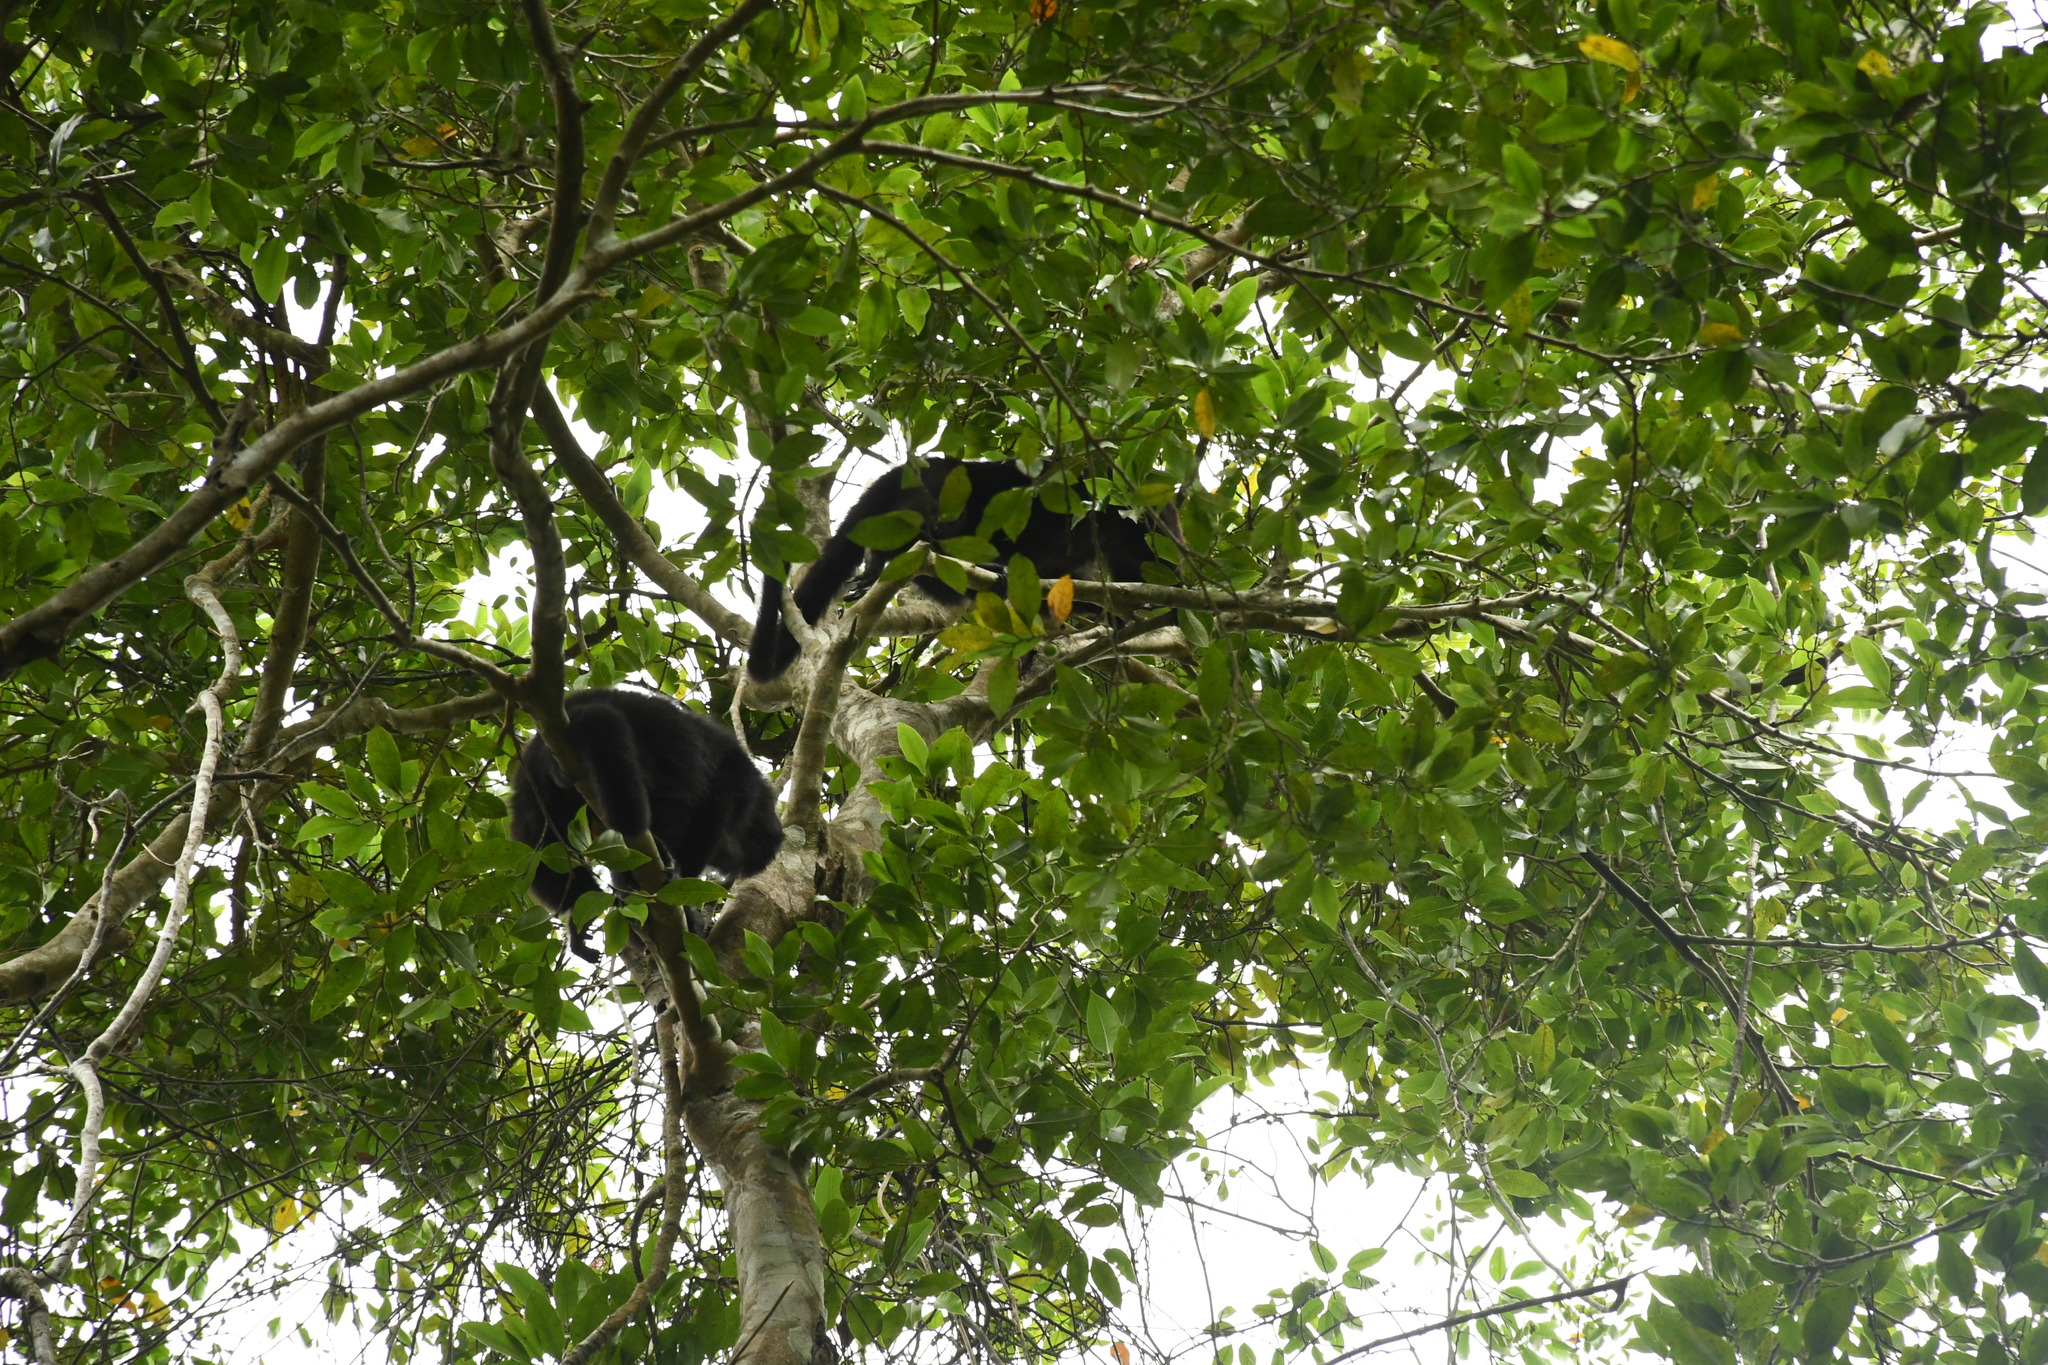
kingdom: Animalia
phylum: Chordata
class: Mammalia
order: Primates
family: Atelidae
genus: Alouatta
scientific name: Alouatta pigra
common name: Guatemalan black howler
